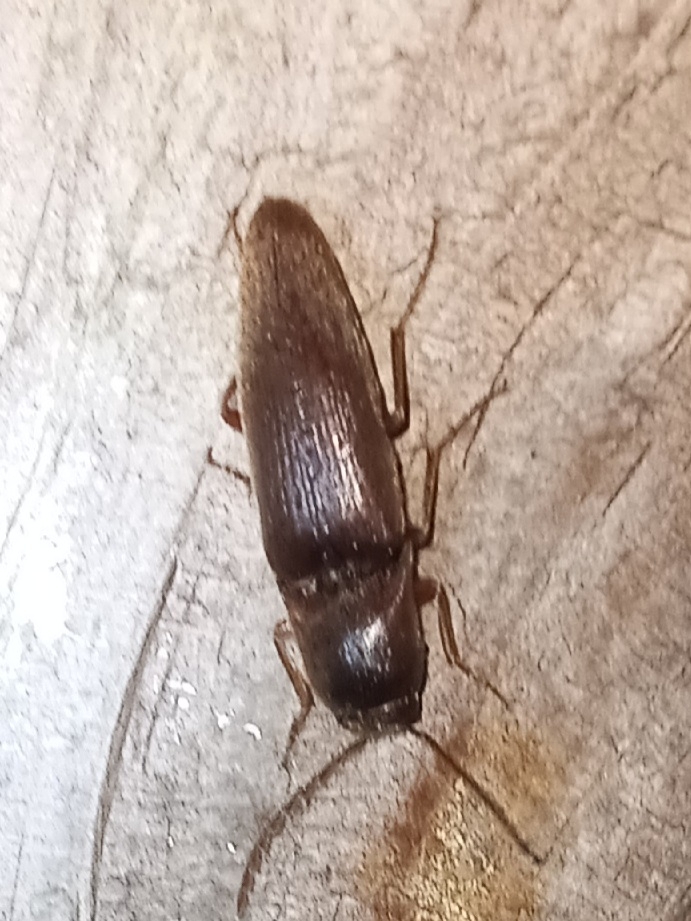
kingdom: Animalia
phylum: Arthropoda
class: Insecta
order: Coleoptera
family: Elateridae
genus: Diplostethus
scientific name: Diplostethus
